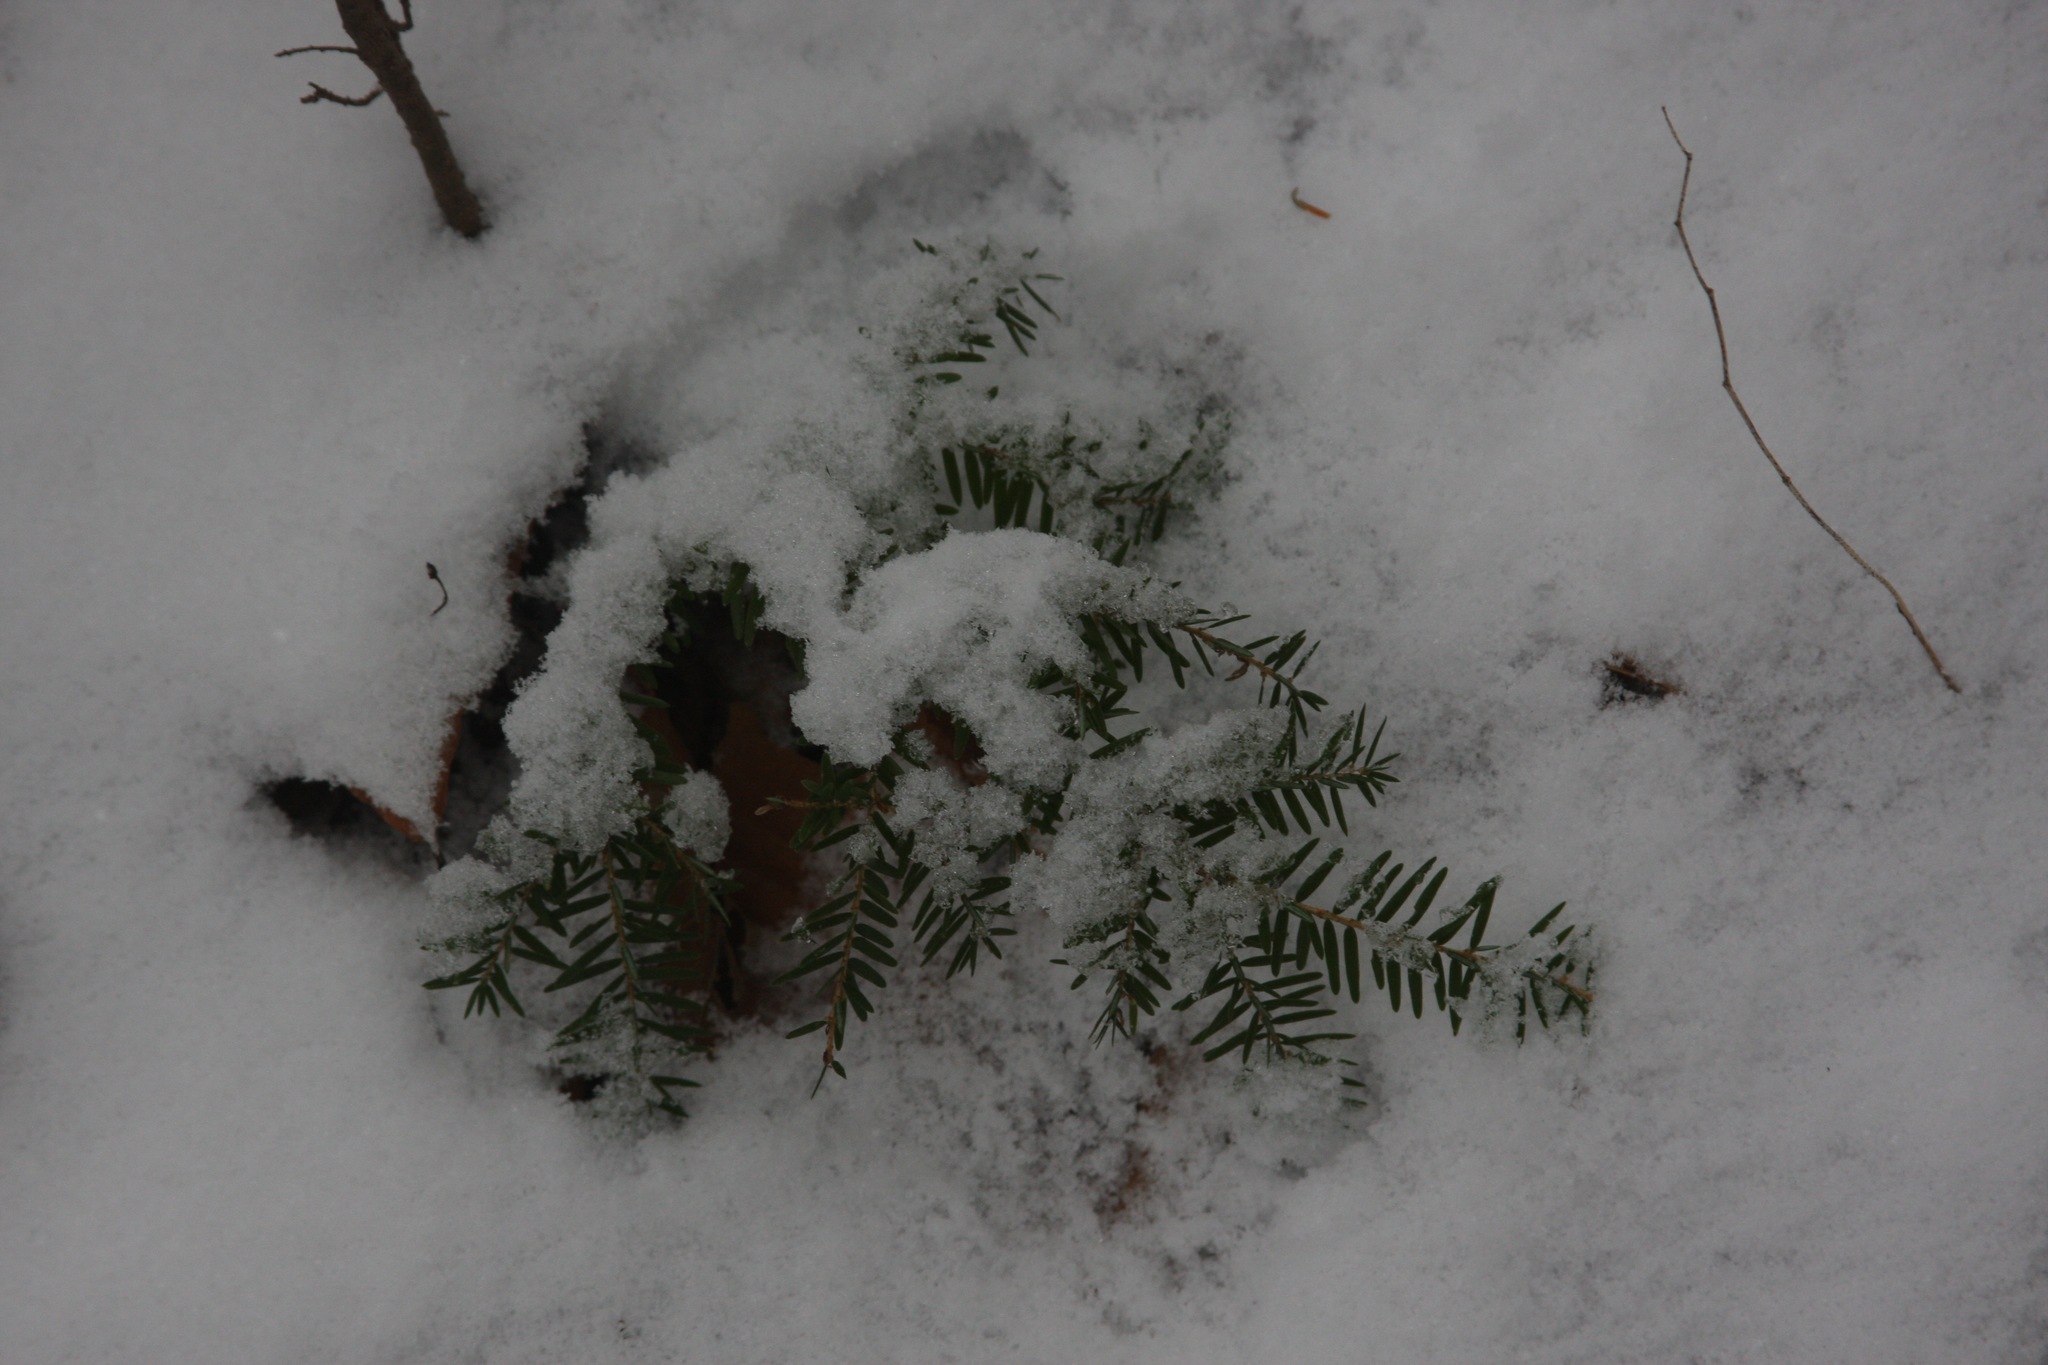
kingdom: Plantae
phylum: Tracheophyta
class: Pinopsida
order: Pinales
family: Pinaceae
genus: Tsuga
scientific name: Tsuga canadensis
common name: Eastern hemlock
